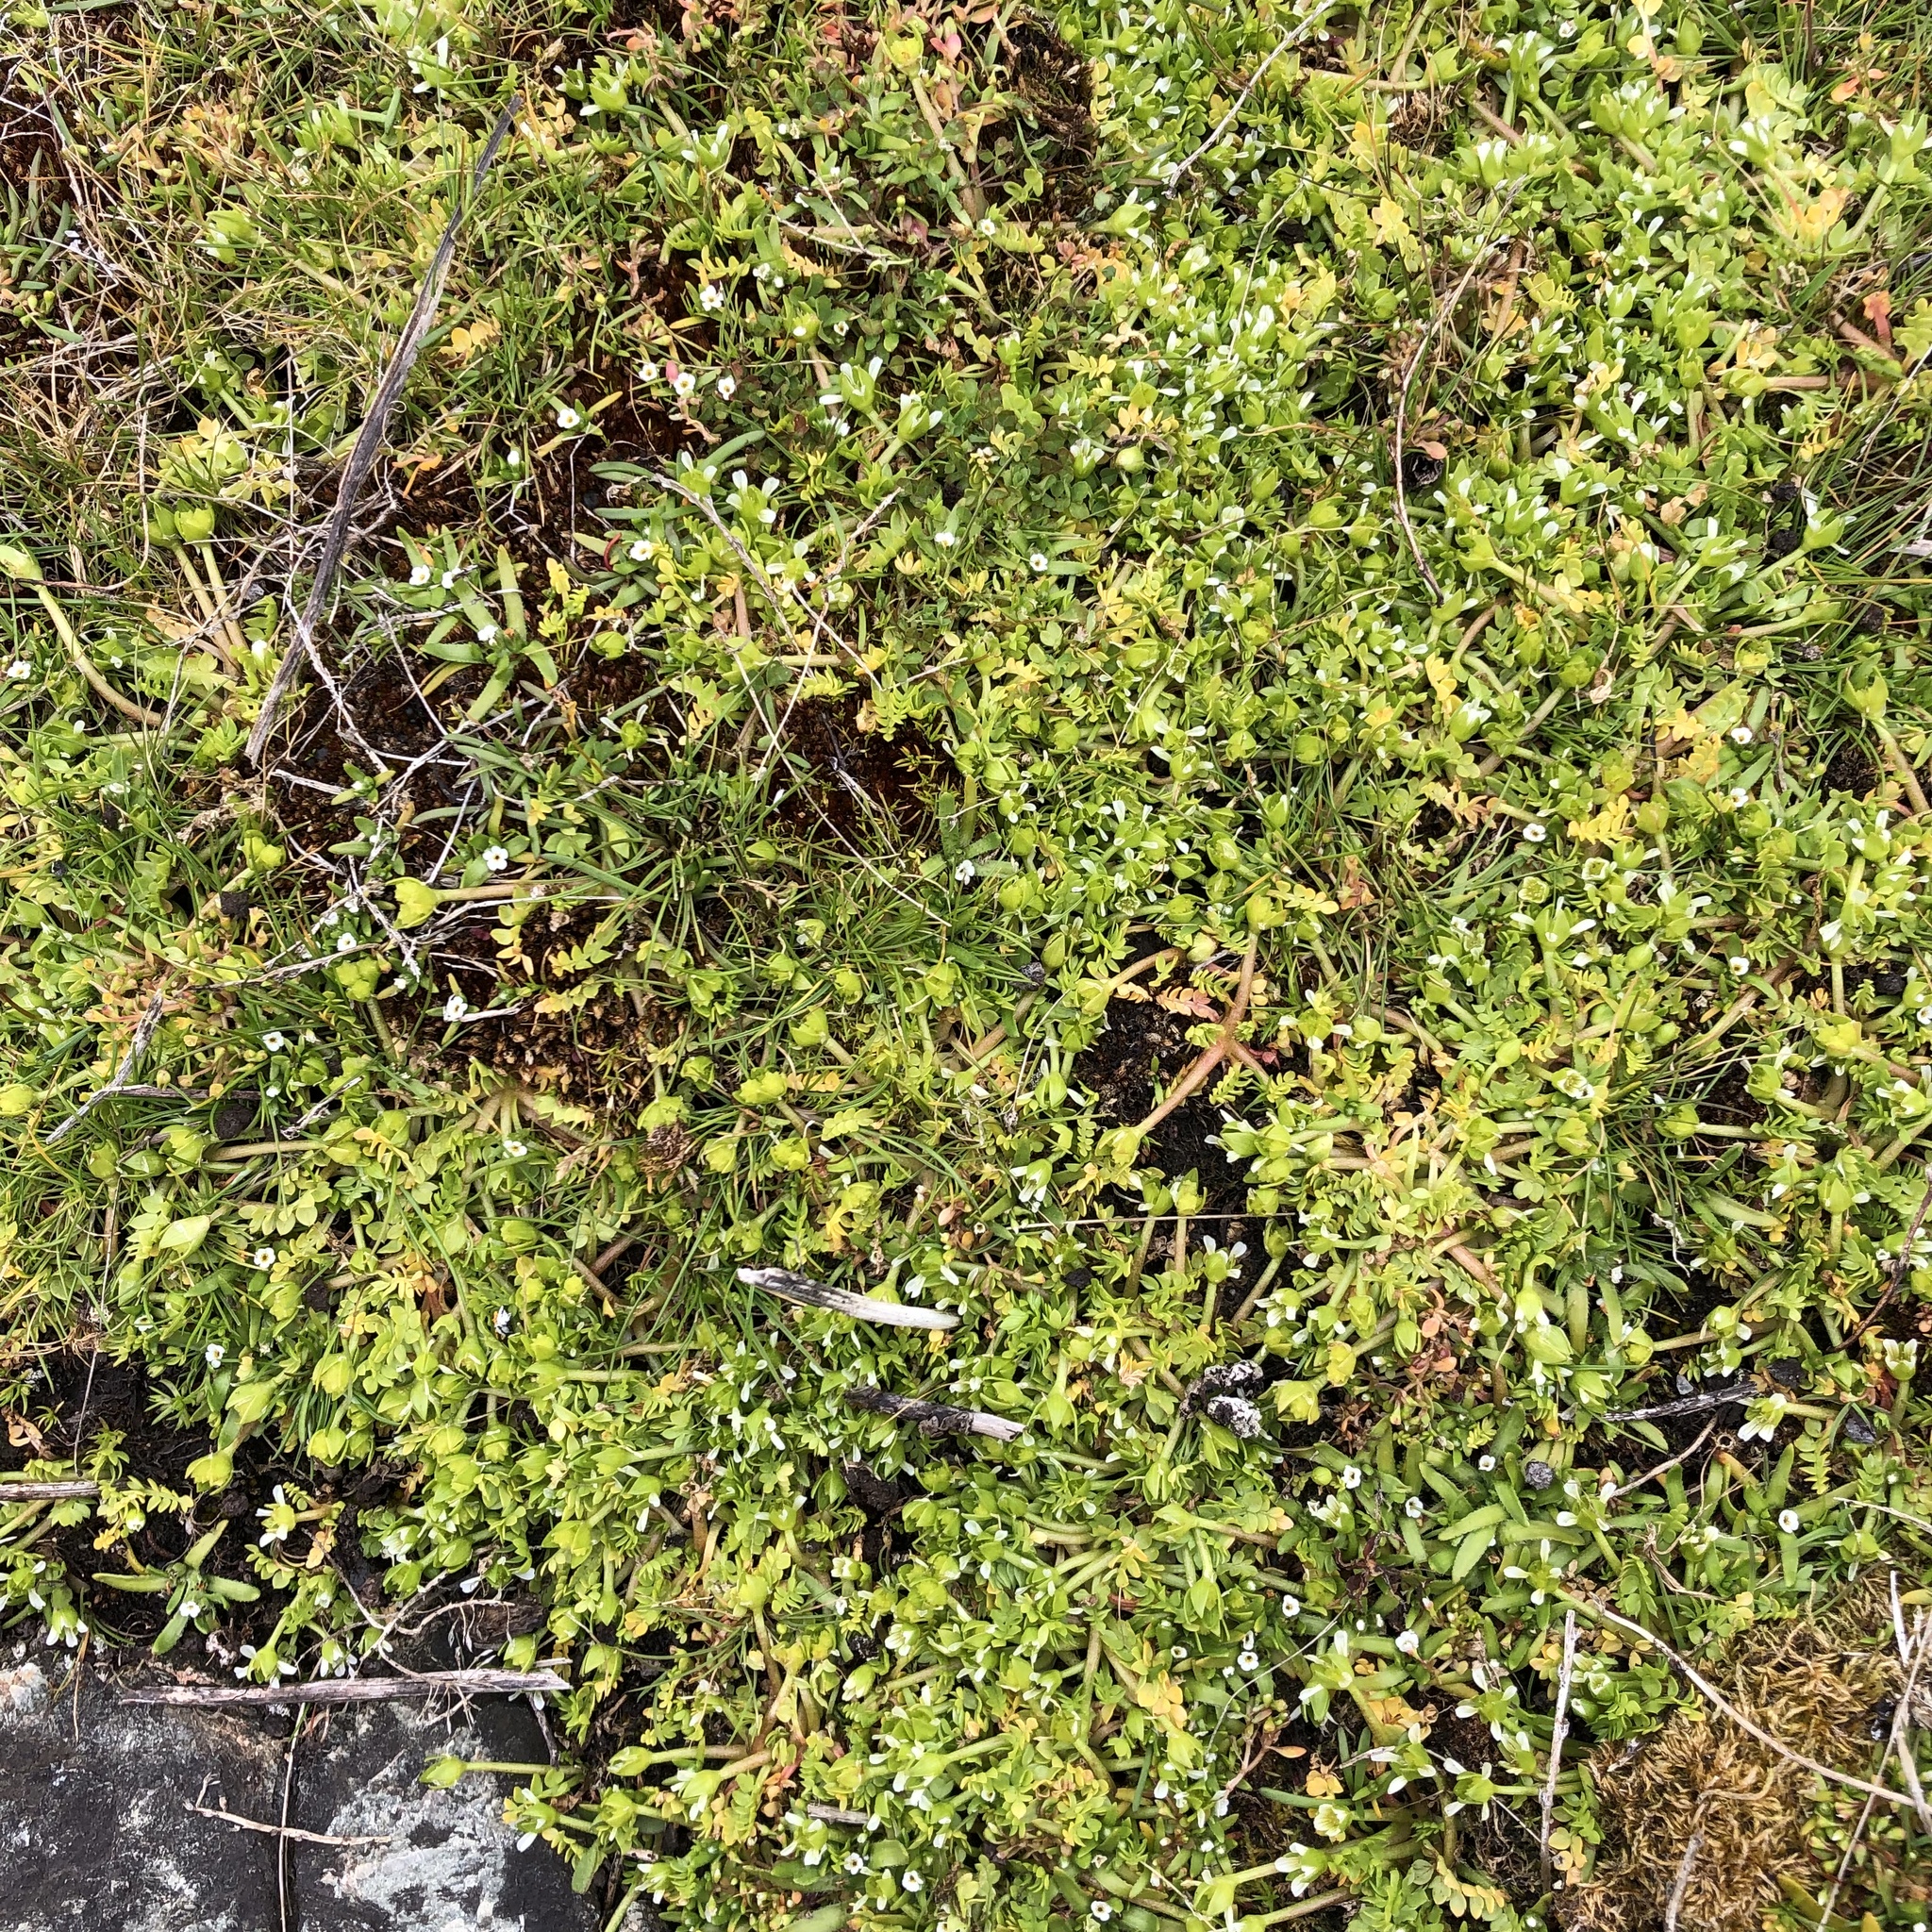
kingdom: Plantae
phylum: Tracheophyta
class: Magnoliopsida
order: Brassicales
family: Limnanthaceae
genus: Limnanthes
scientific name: Limnanthes macounii
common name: Macoun's meadowfoam
